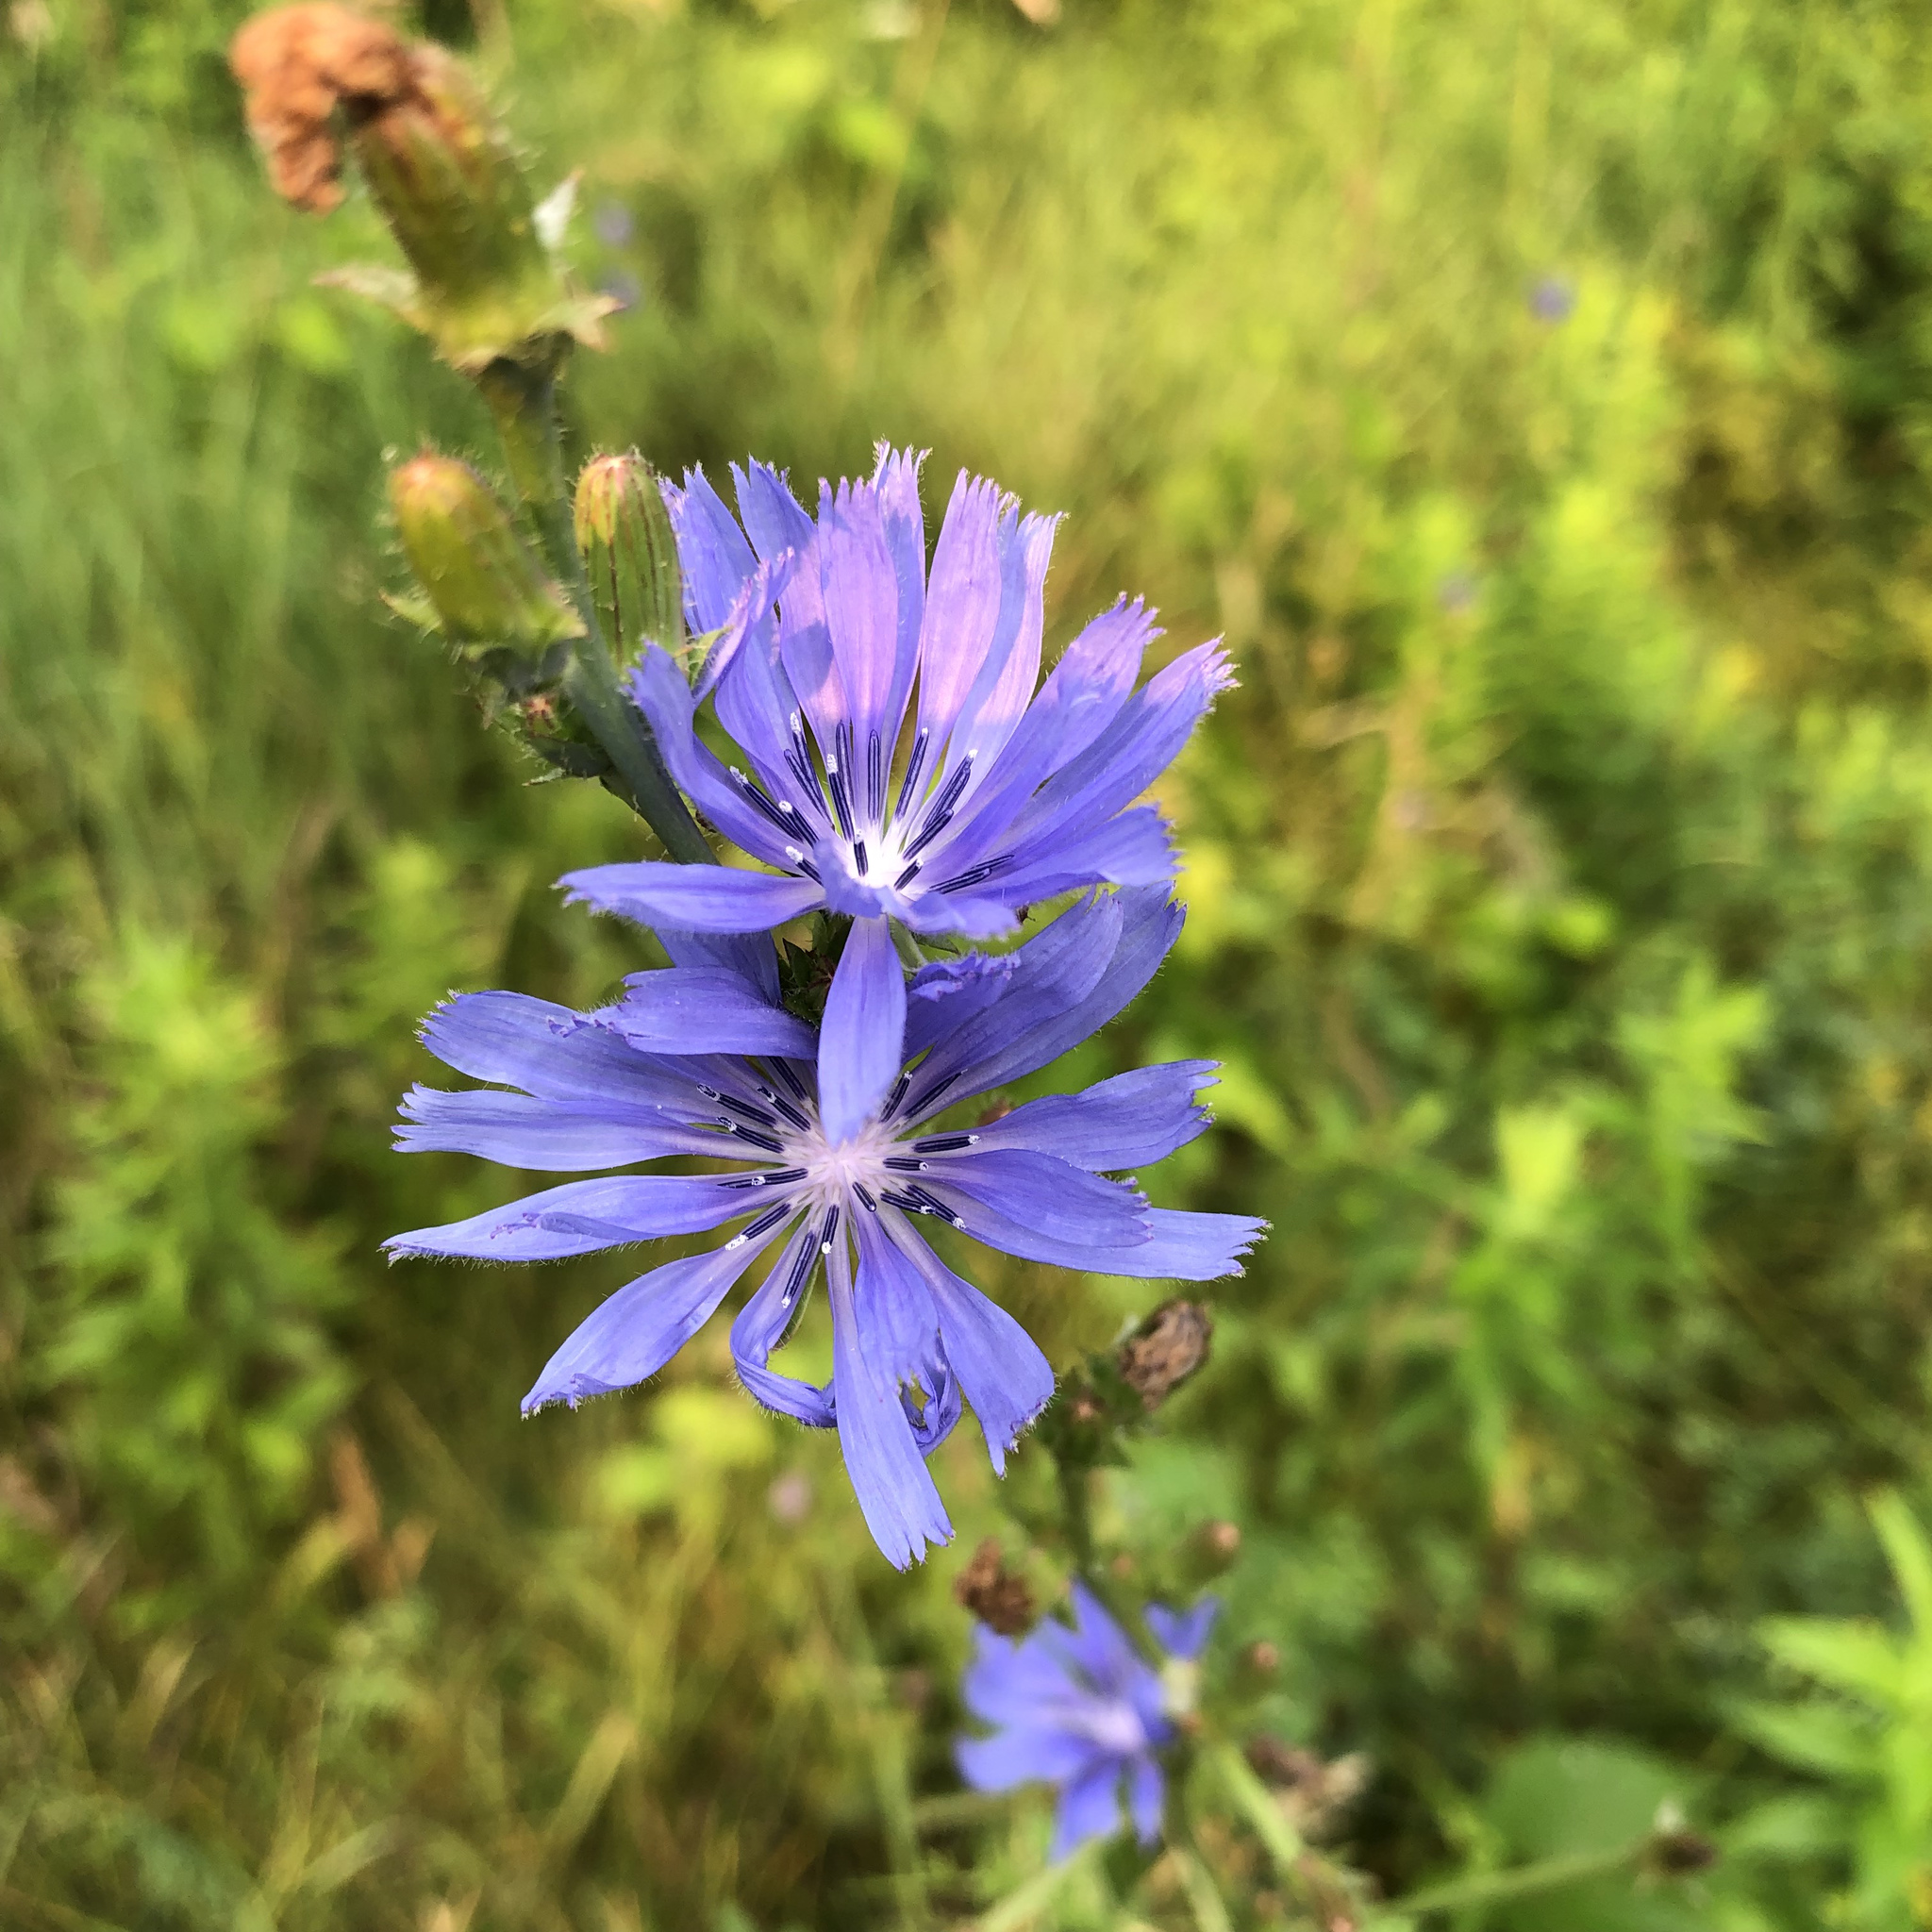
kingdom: Plantae
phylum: Tracheophyta
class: Magnoliopsida
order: Asterales
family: Asteraceae
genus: Cichorium
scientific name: Cichorium intybus
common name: Chicory
